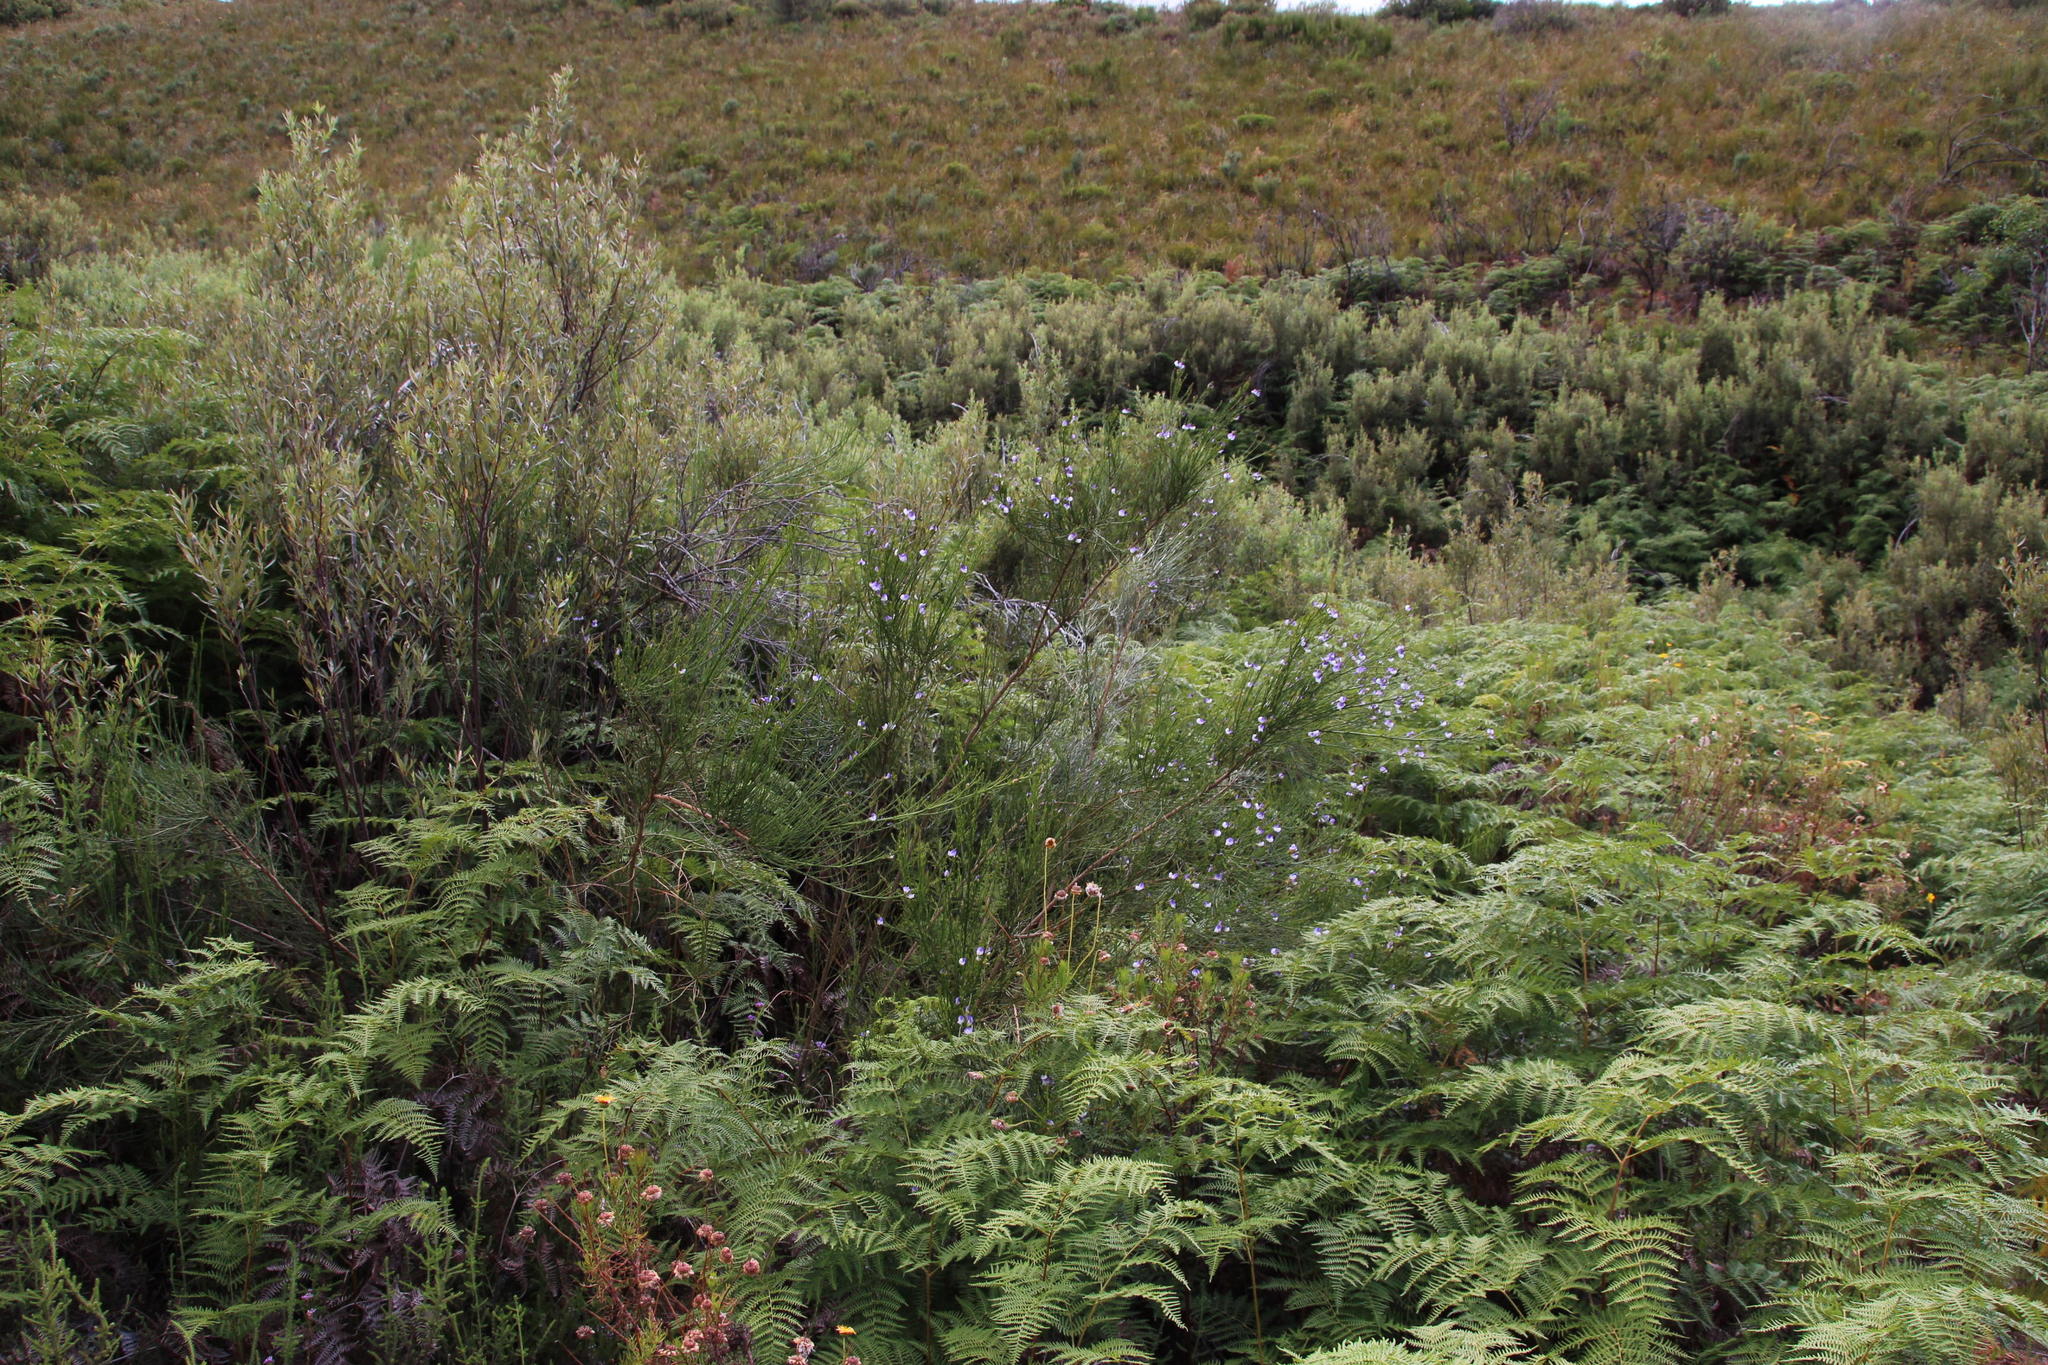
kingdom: Plantae
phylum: Tracheophyta
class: Magnoliopsida
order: Fabales
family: Fabaceae
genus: Psoralea
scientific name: Psoralea filifolia
